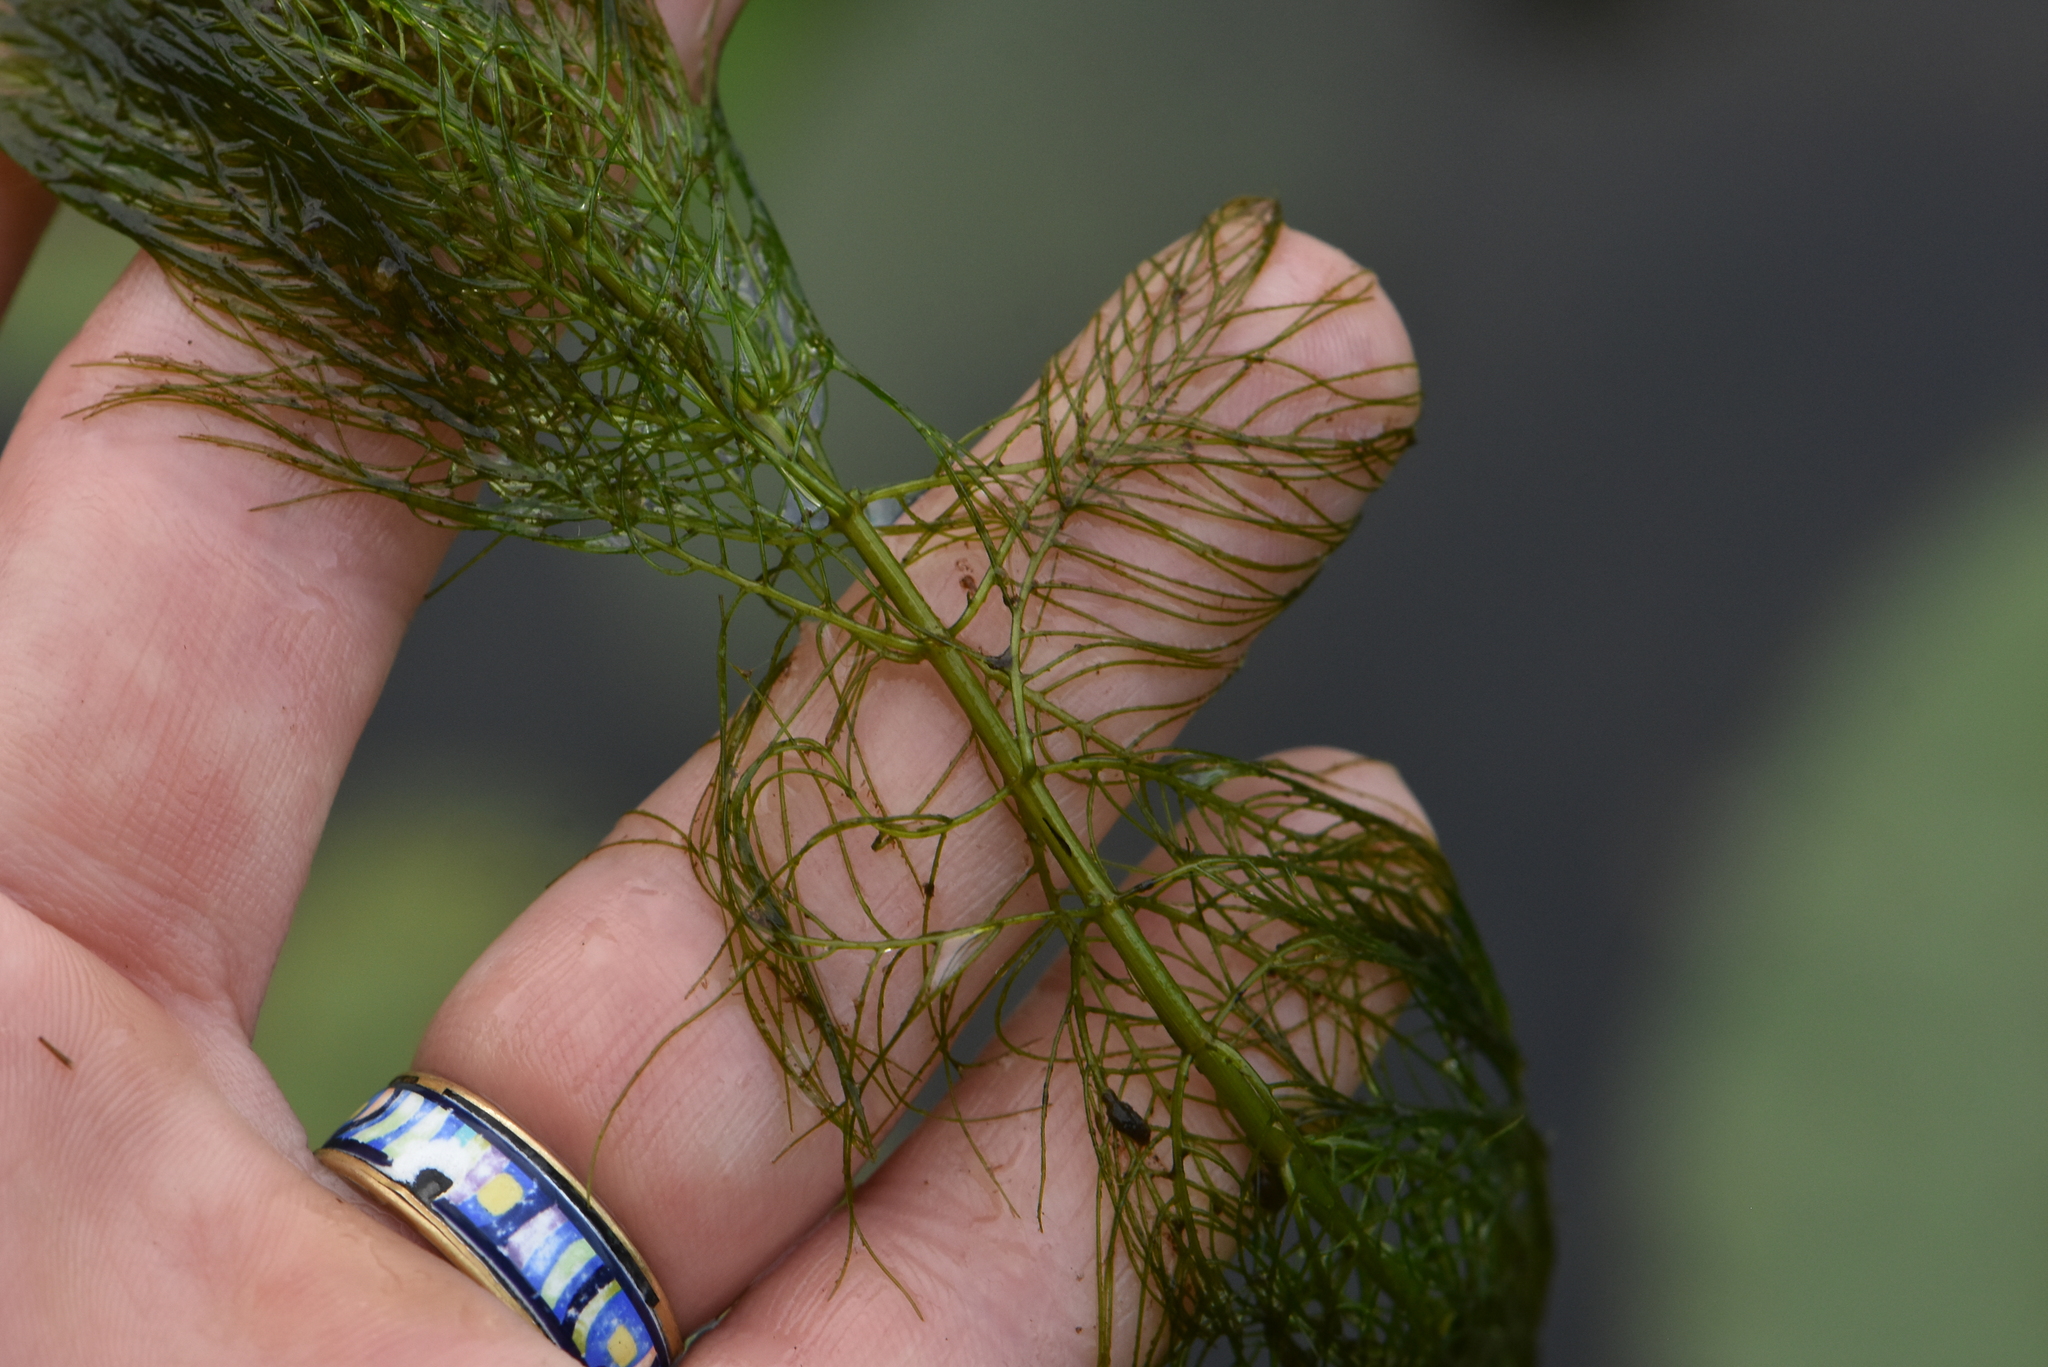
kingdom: Plantae
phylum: Tracheophyta
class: Magnoliopsida
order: Saxifragales
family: Haloragaceae
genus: Myriophyllum
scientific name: Myriophyllum verticillatum
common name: Whorled water-milfoil
